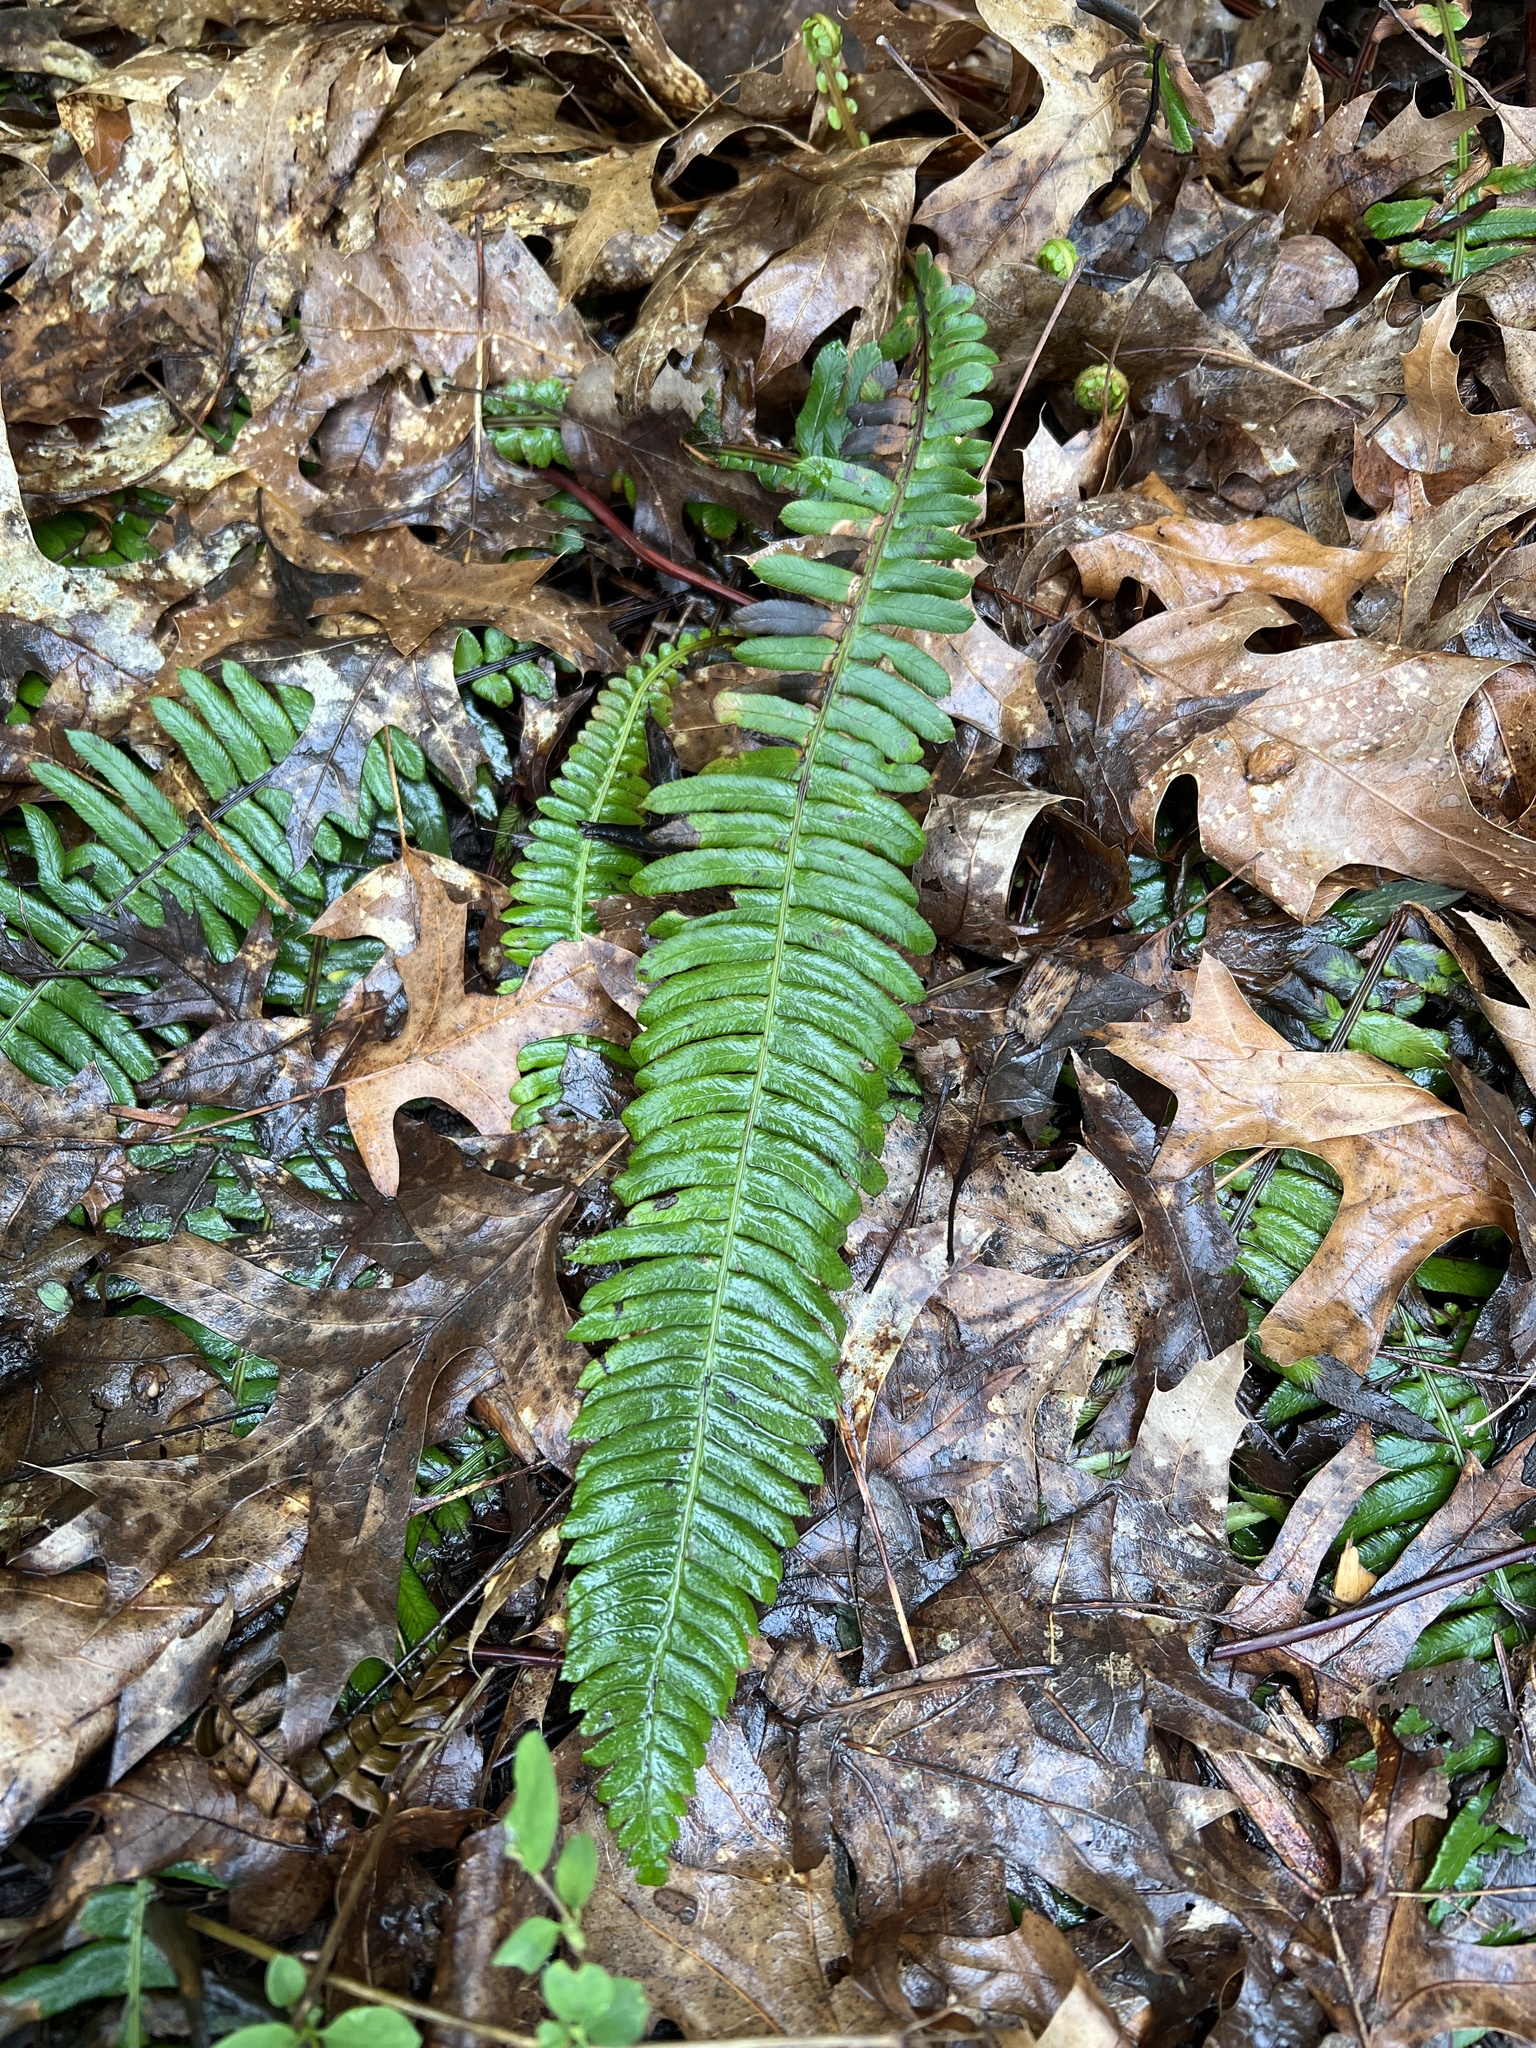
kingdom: Plantae
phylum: Tracheophyta
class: Polypodiopsida
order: Polypodiales
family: Blechnaceae
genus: Struthiopteris
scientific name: Struthiopteris spicant
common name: Deer fern
